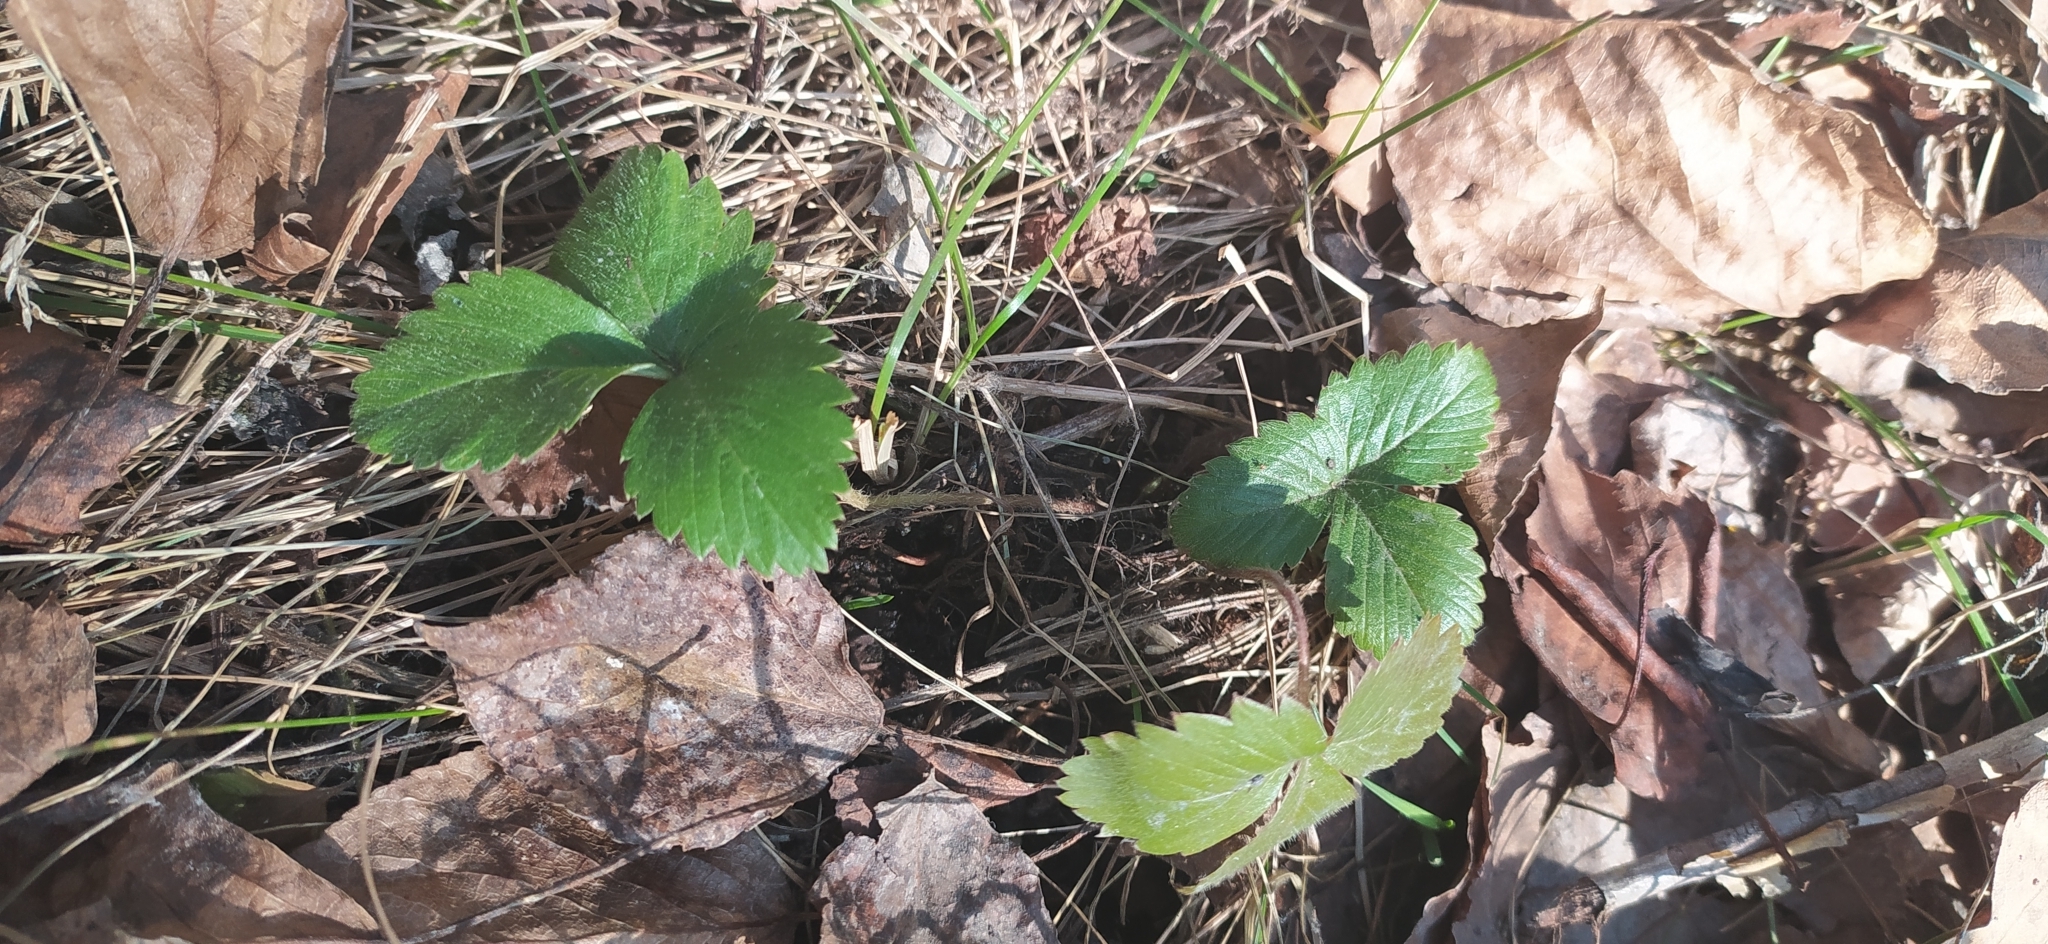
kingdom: Plantae
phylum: Tracheophyta
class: Magnoliopsida
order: Rosales
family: Rosaceae
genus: Fragaria
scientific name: Fragaria vesca
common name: Wild strawberry
